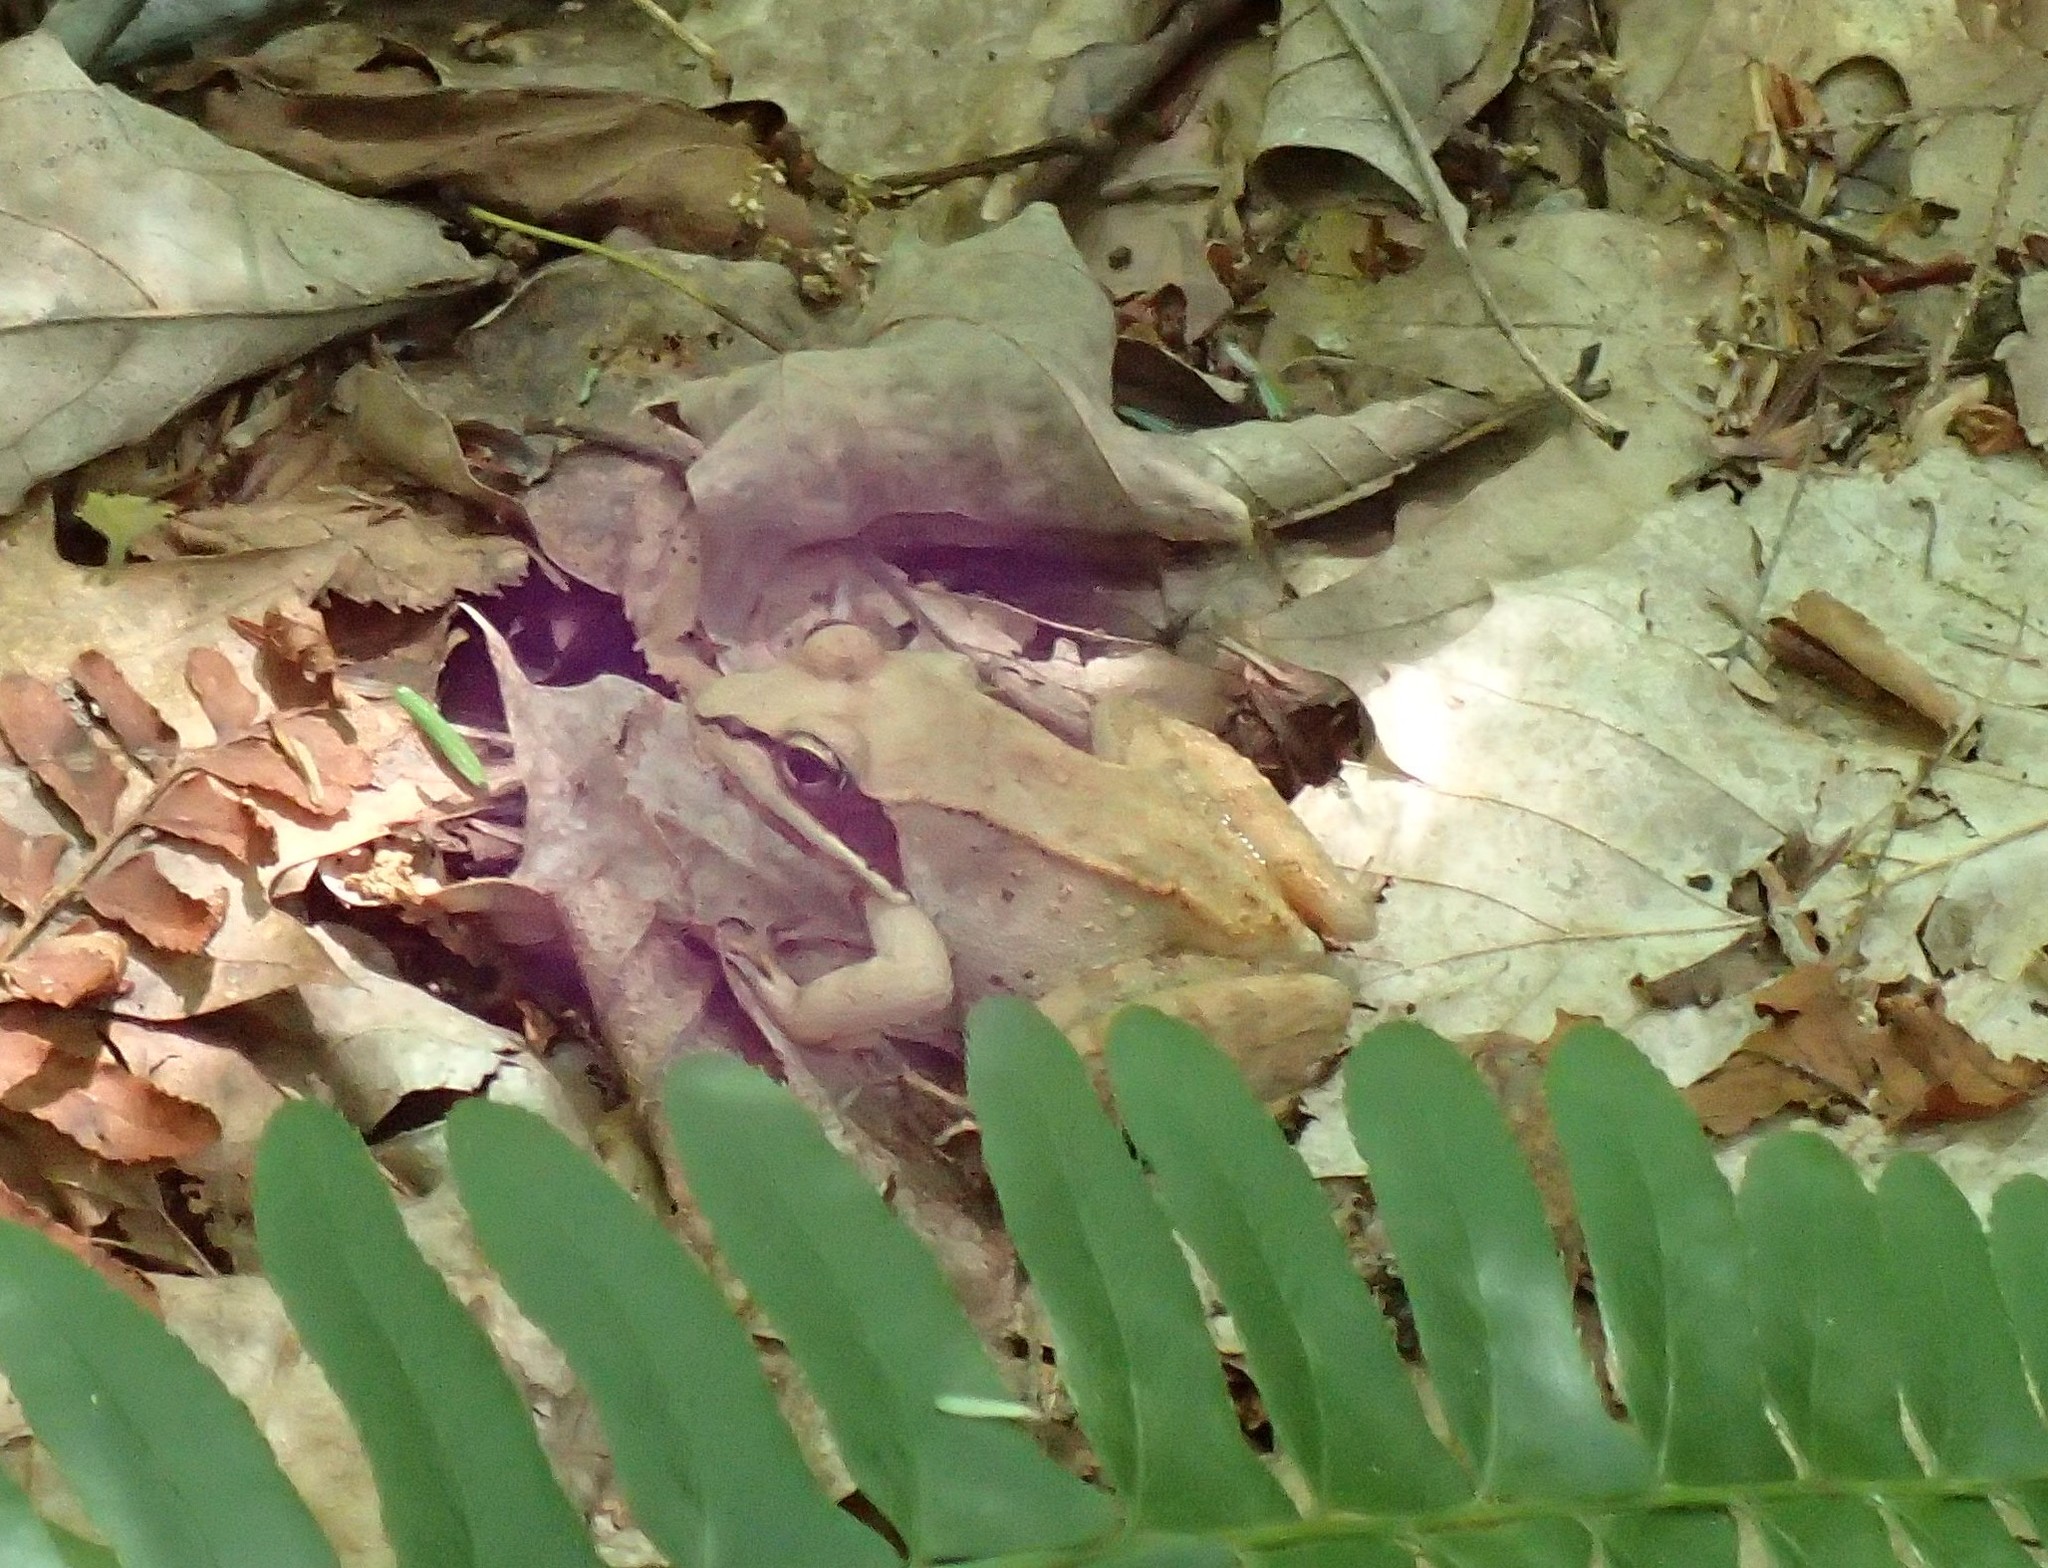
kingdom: Animalia
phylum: Chordata
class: Amphibia
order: Anura
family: Ranidae
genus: Lithobates
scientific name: Lithobates sylvaticus
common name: Wood frog
